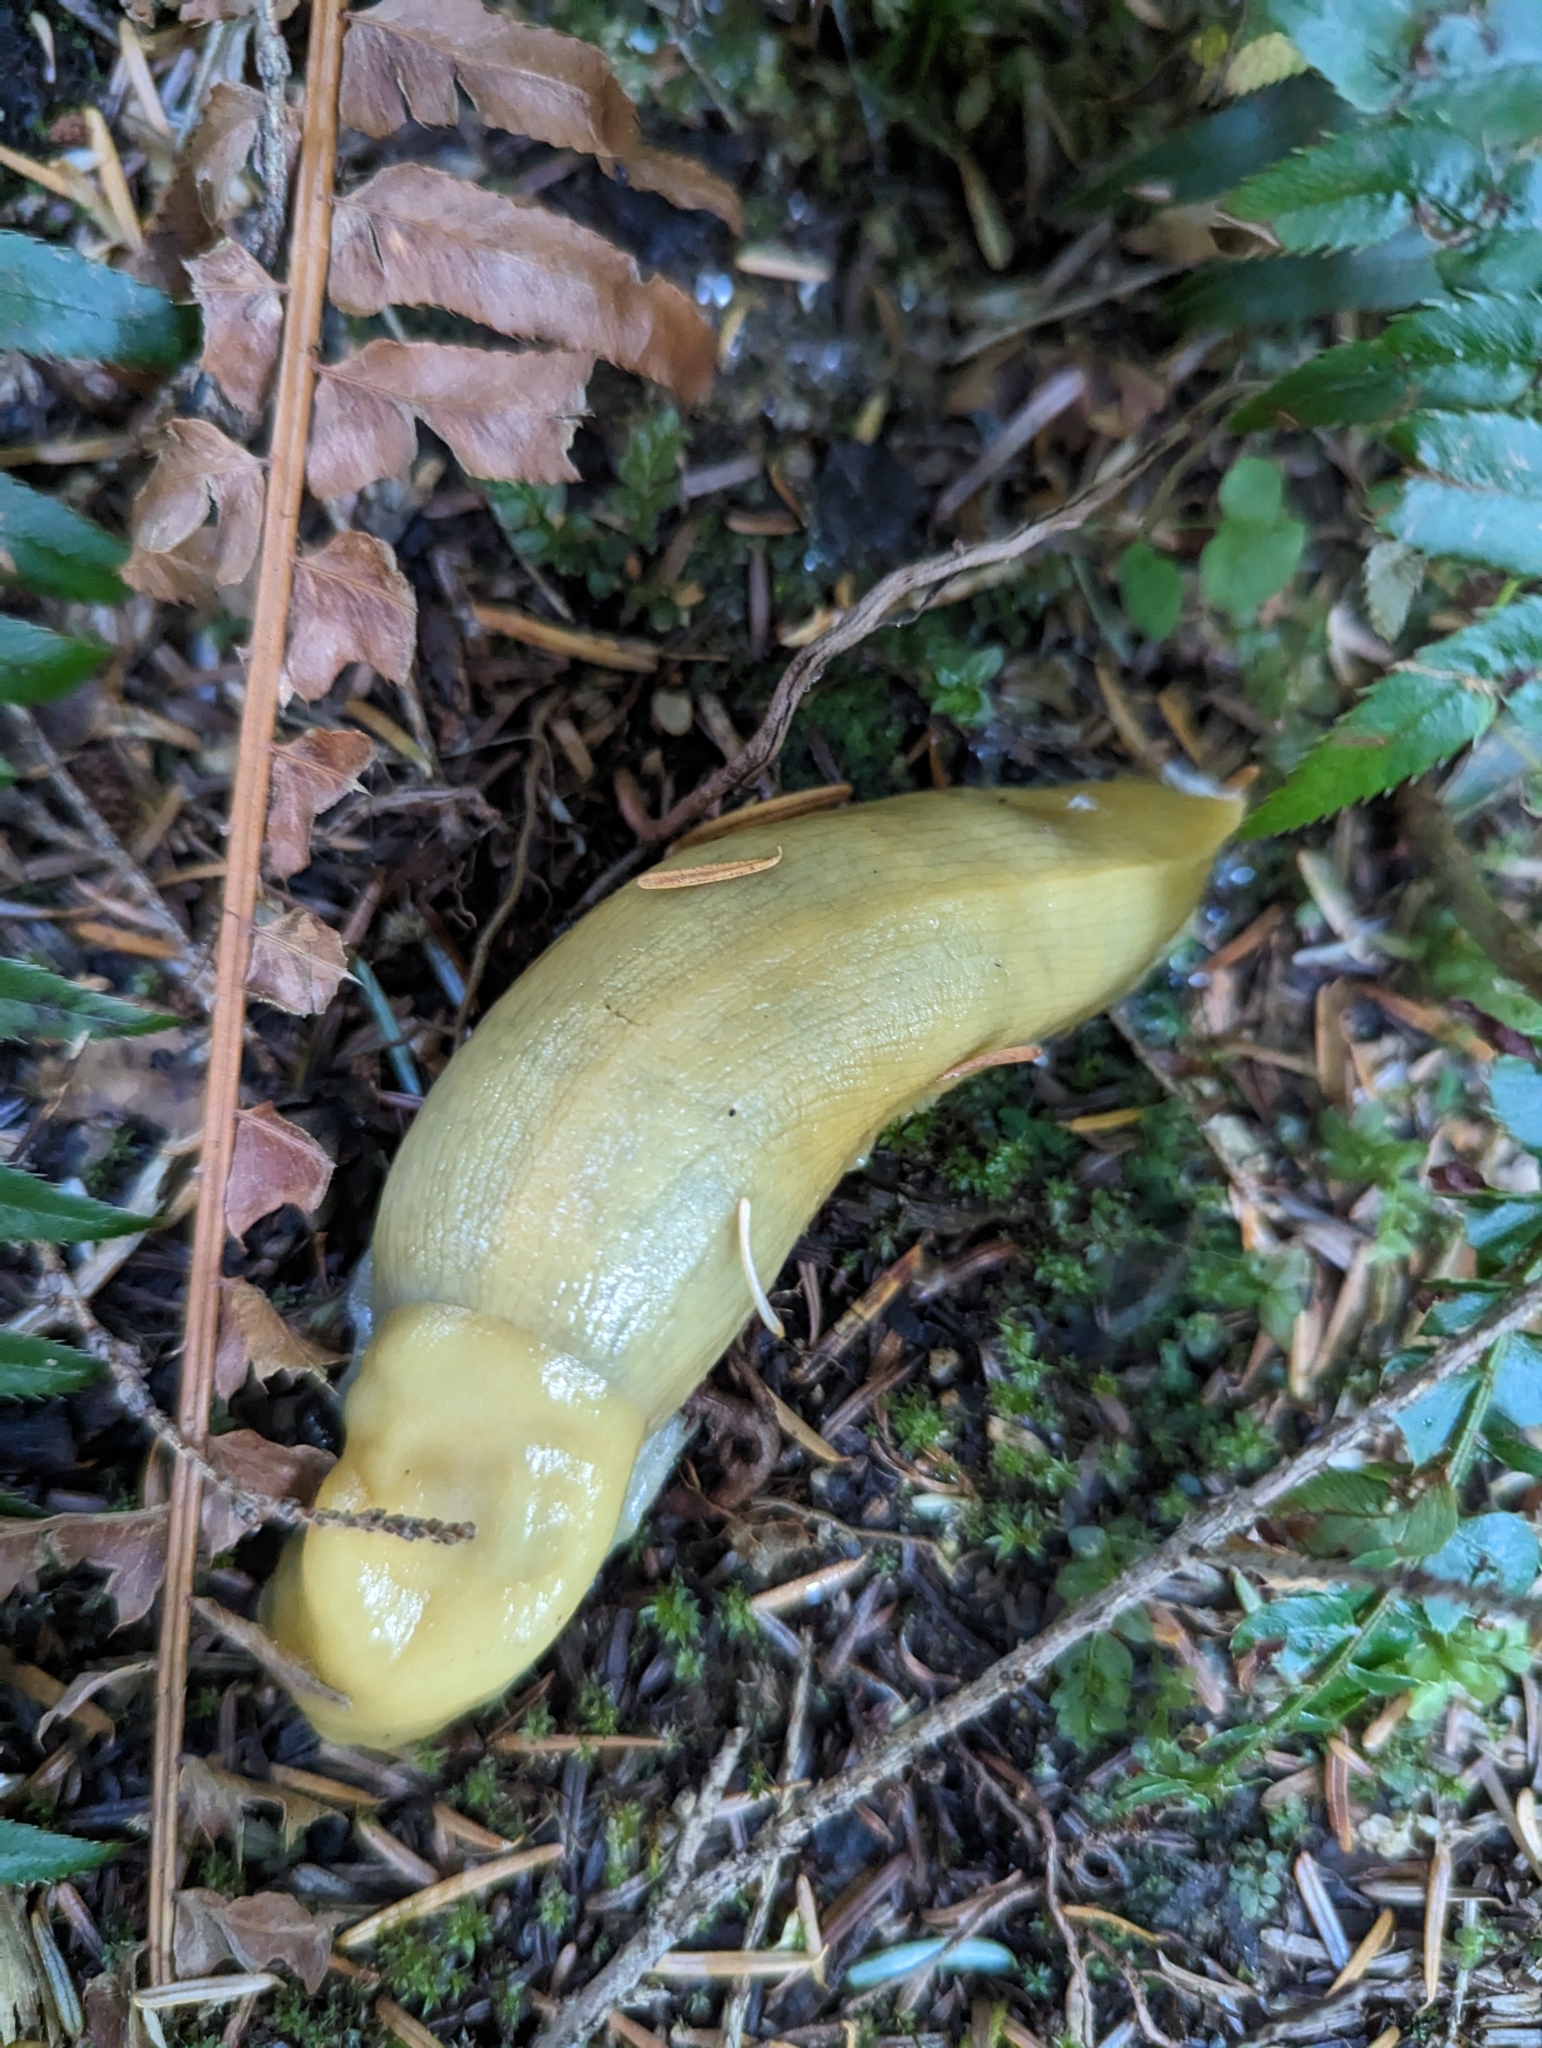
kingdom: Animalia
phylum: Mollusca
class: Gastropoda
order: Stylommatophora
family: Ariolimacidae
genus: Ariolimax
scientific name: Ariolimax columbianus
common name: Pacific banana slug
